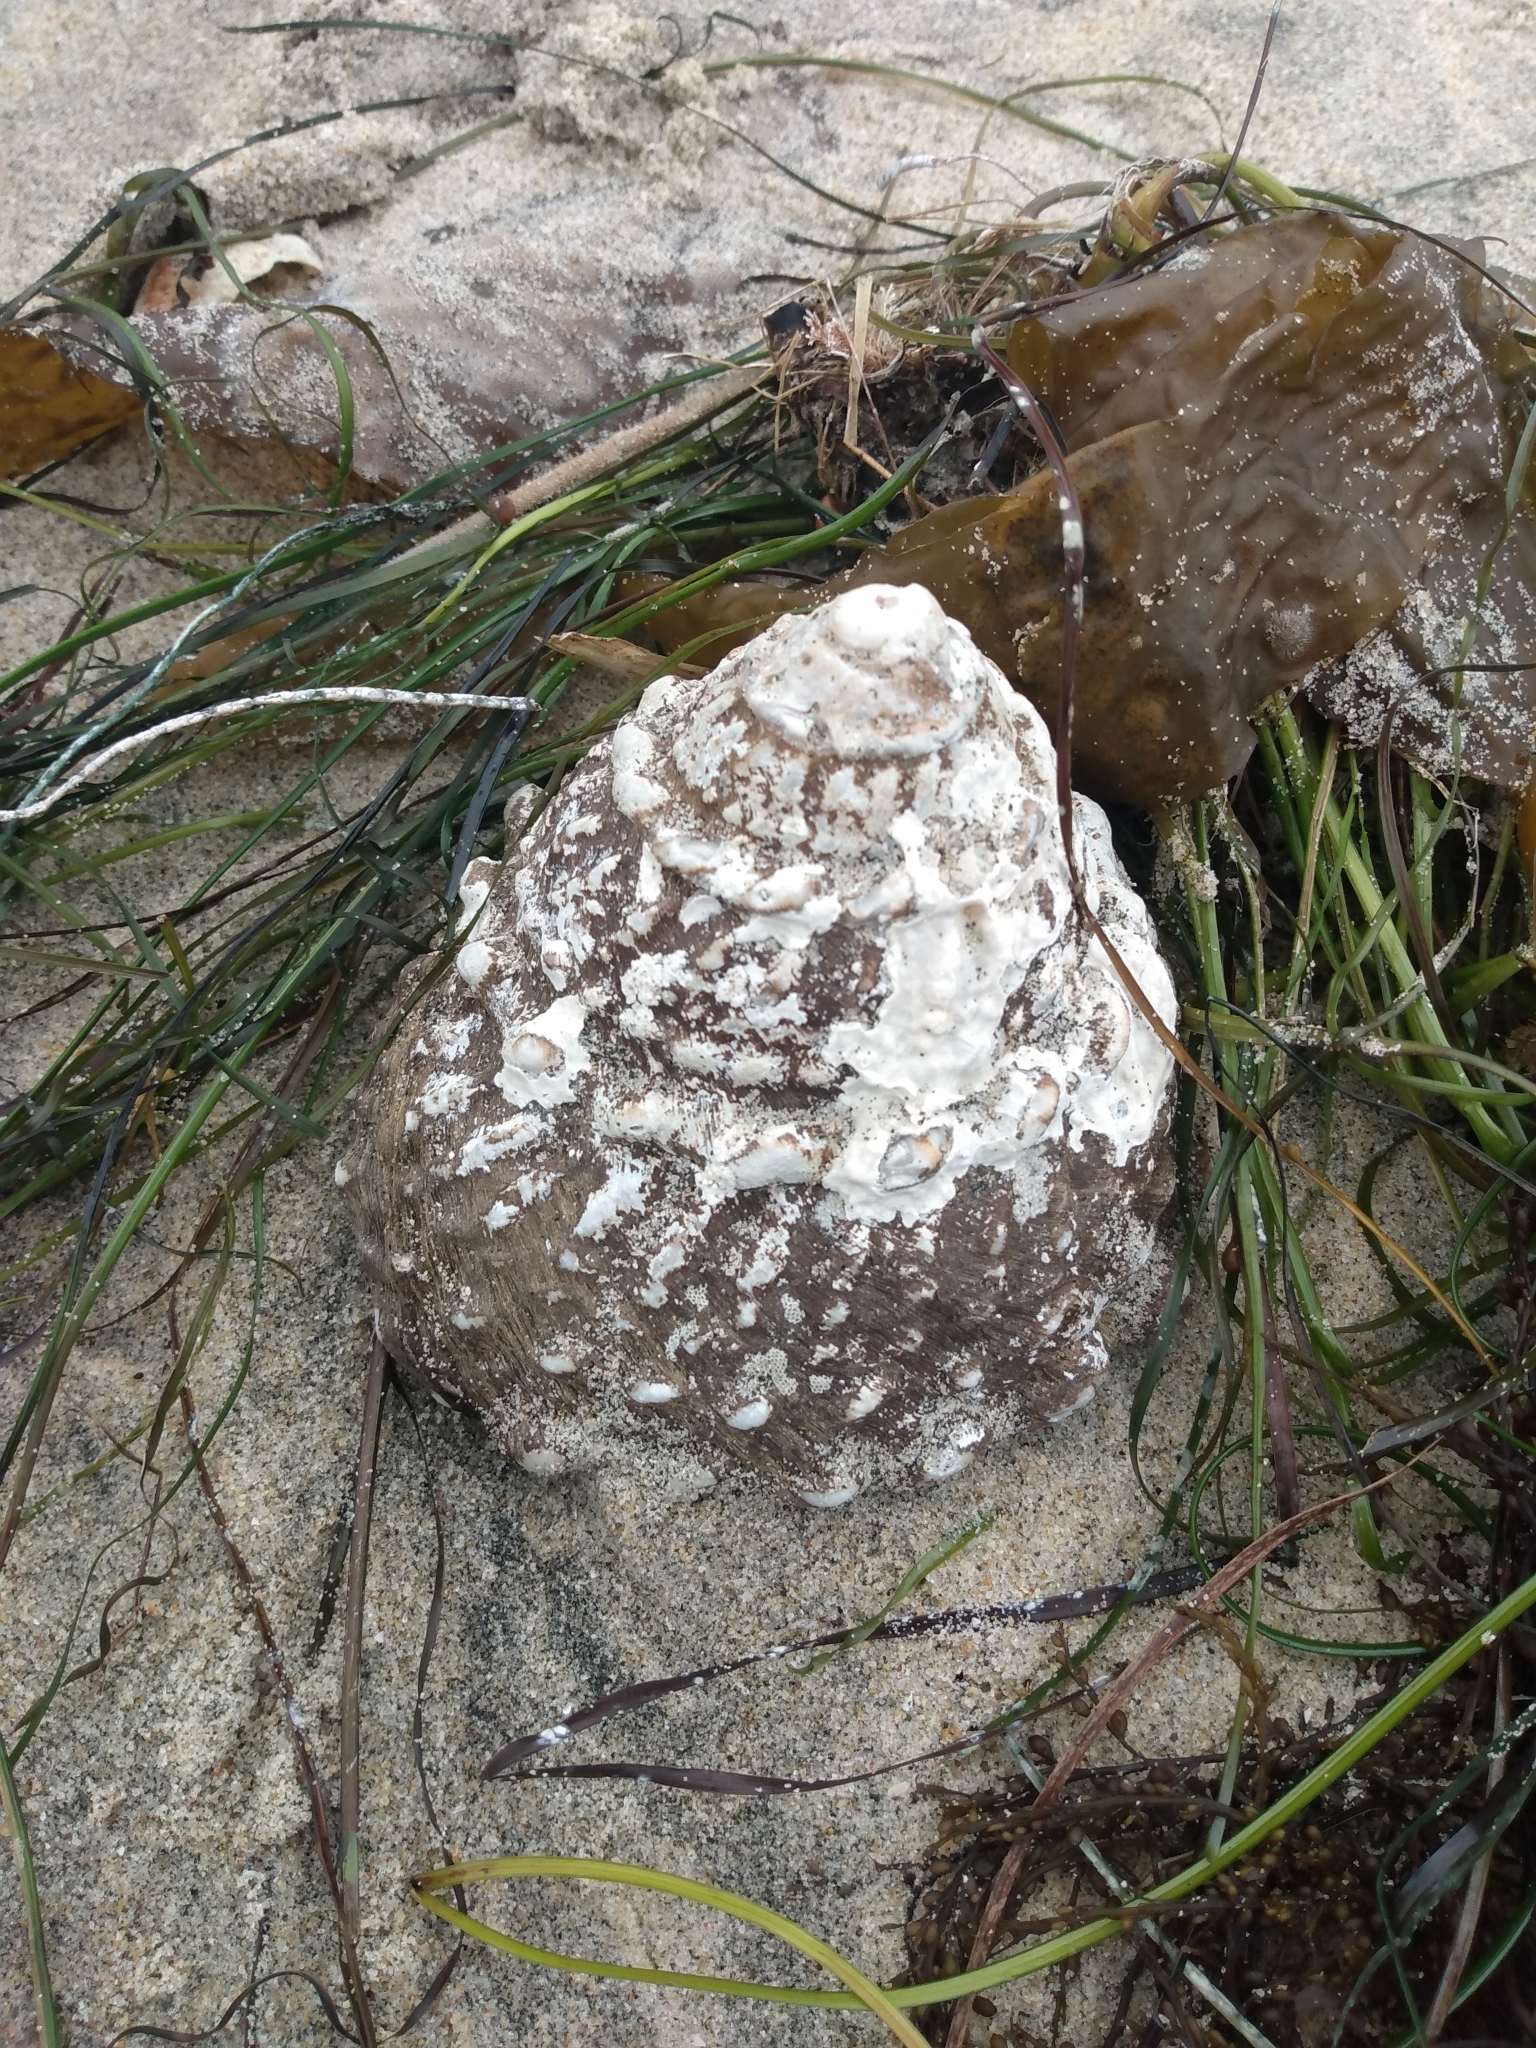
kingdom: Animalia
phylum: Mollusca
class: Gastropoda
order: Trochida
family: Turbinidae
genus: Megastraea
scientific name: Megastraea undosa
